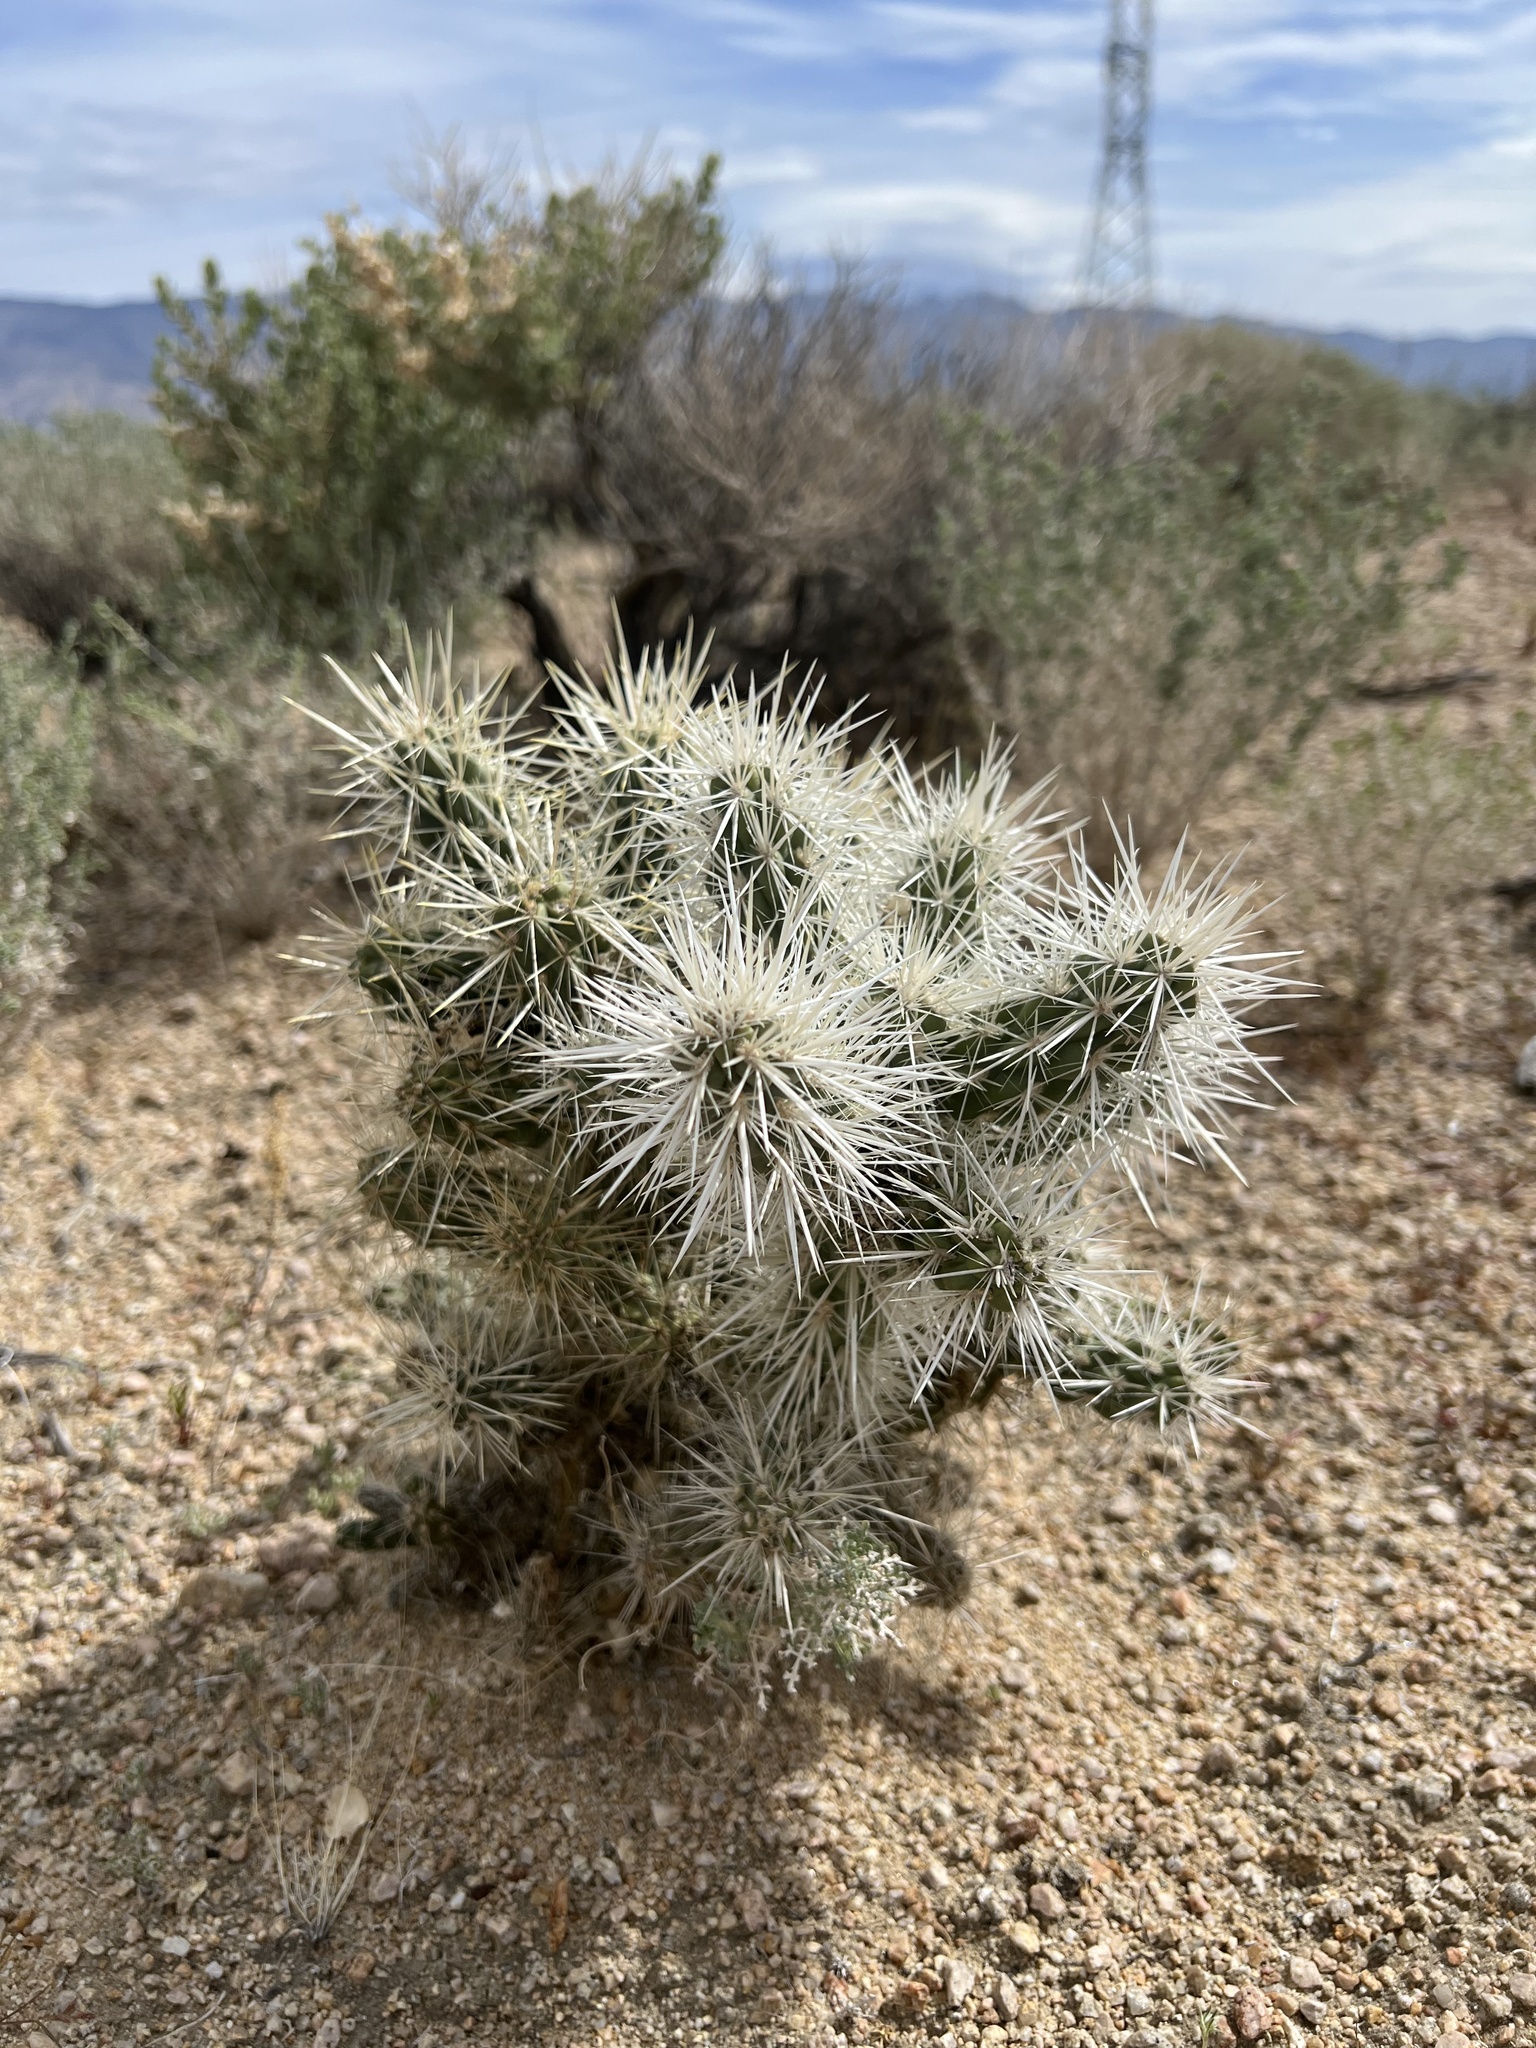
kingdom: Plantae
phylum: Tracheophyta
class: Magnoliopsida
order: Caryophyllales
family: Cactaceae
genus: Cylindropuntia
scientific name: Cylindropuntia echinocarpa
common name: Ground cholla
